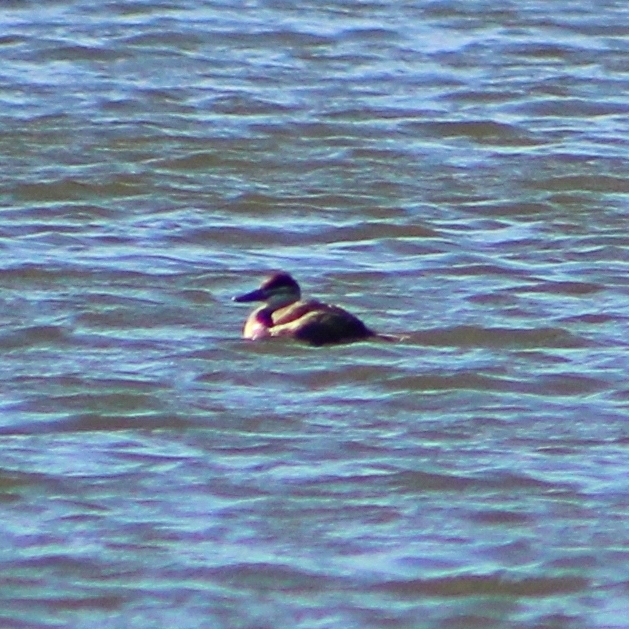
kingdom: Animalia
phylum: Chordata
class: Aves
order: Anseriformes
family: Anatidae
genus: Oxyura
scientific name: Oxyura jamaicensis
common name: Ruddy duck
